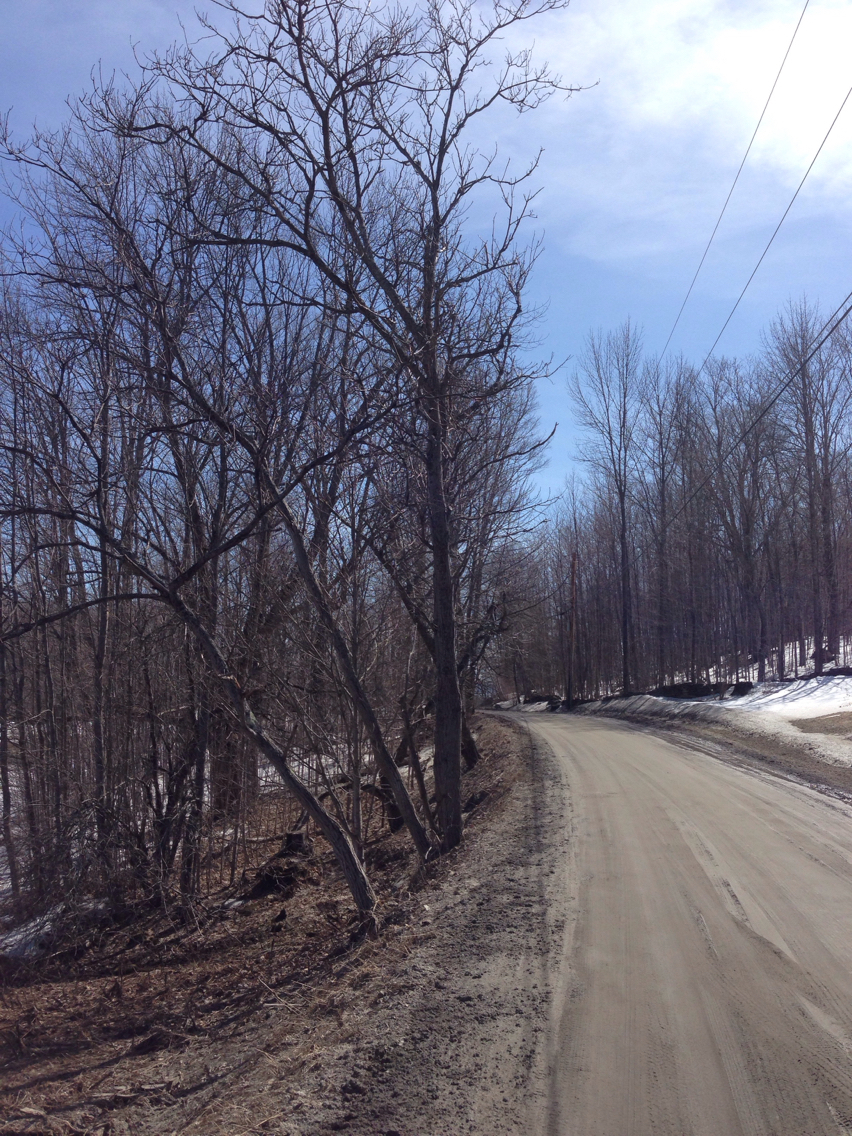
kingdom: Plantae
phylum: Tracheophyta
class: Magnoliopsida
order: Fagales
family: Juglandaceae
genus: Juglans
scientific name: Juglans cinerea
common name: Butternut
